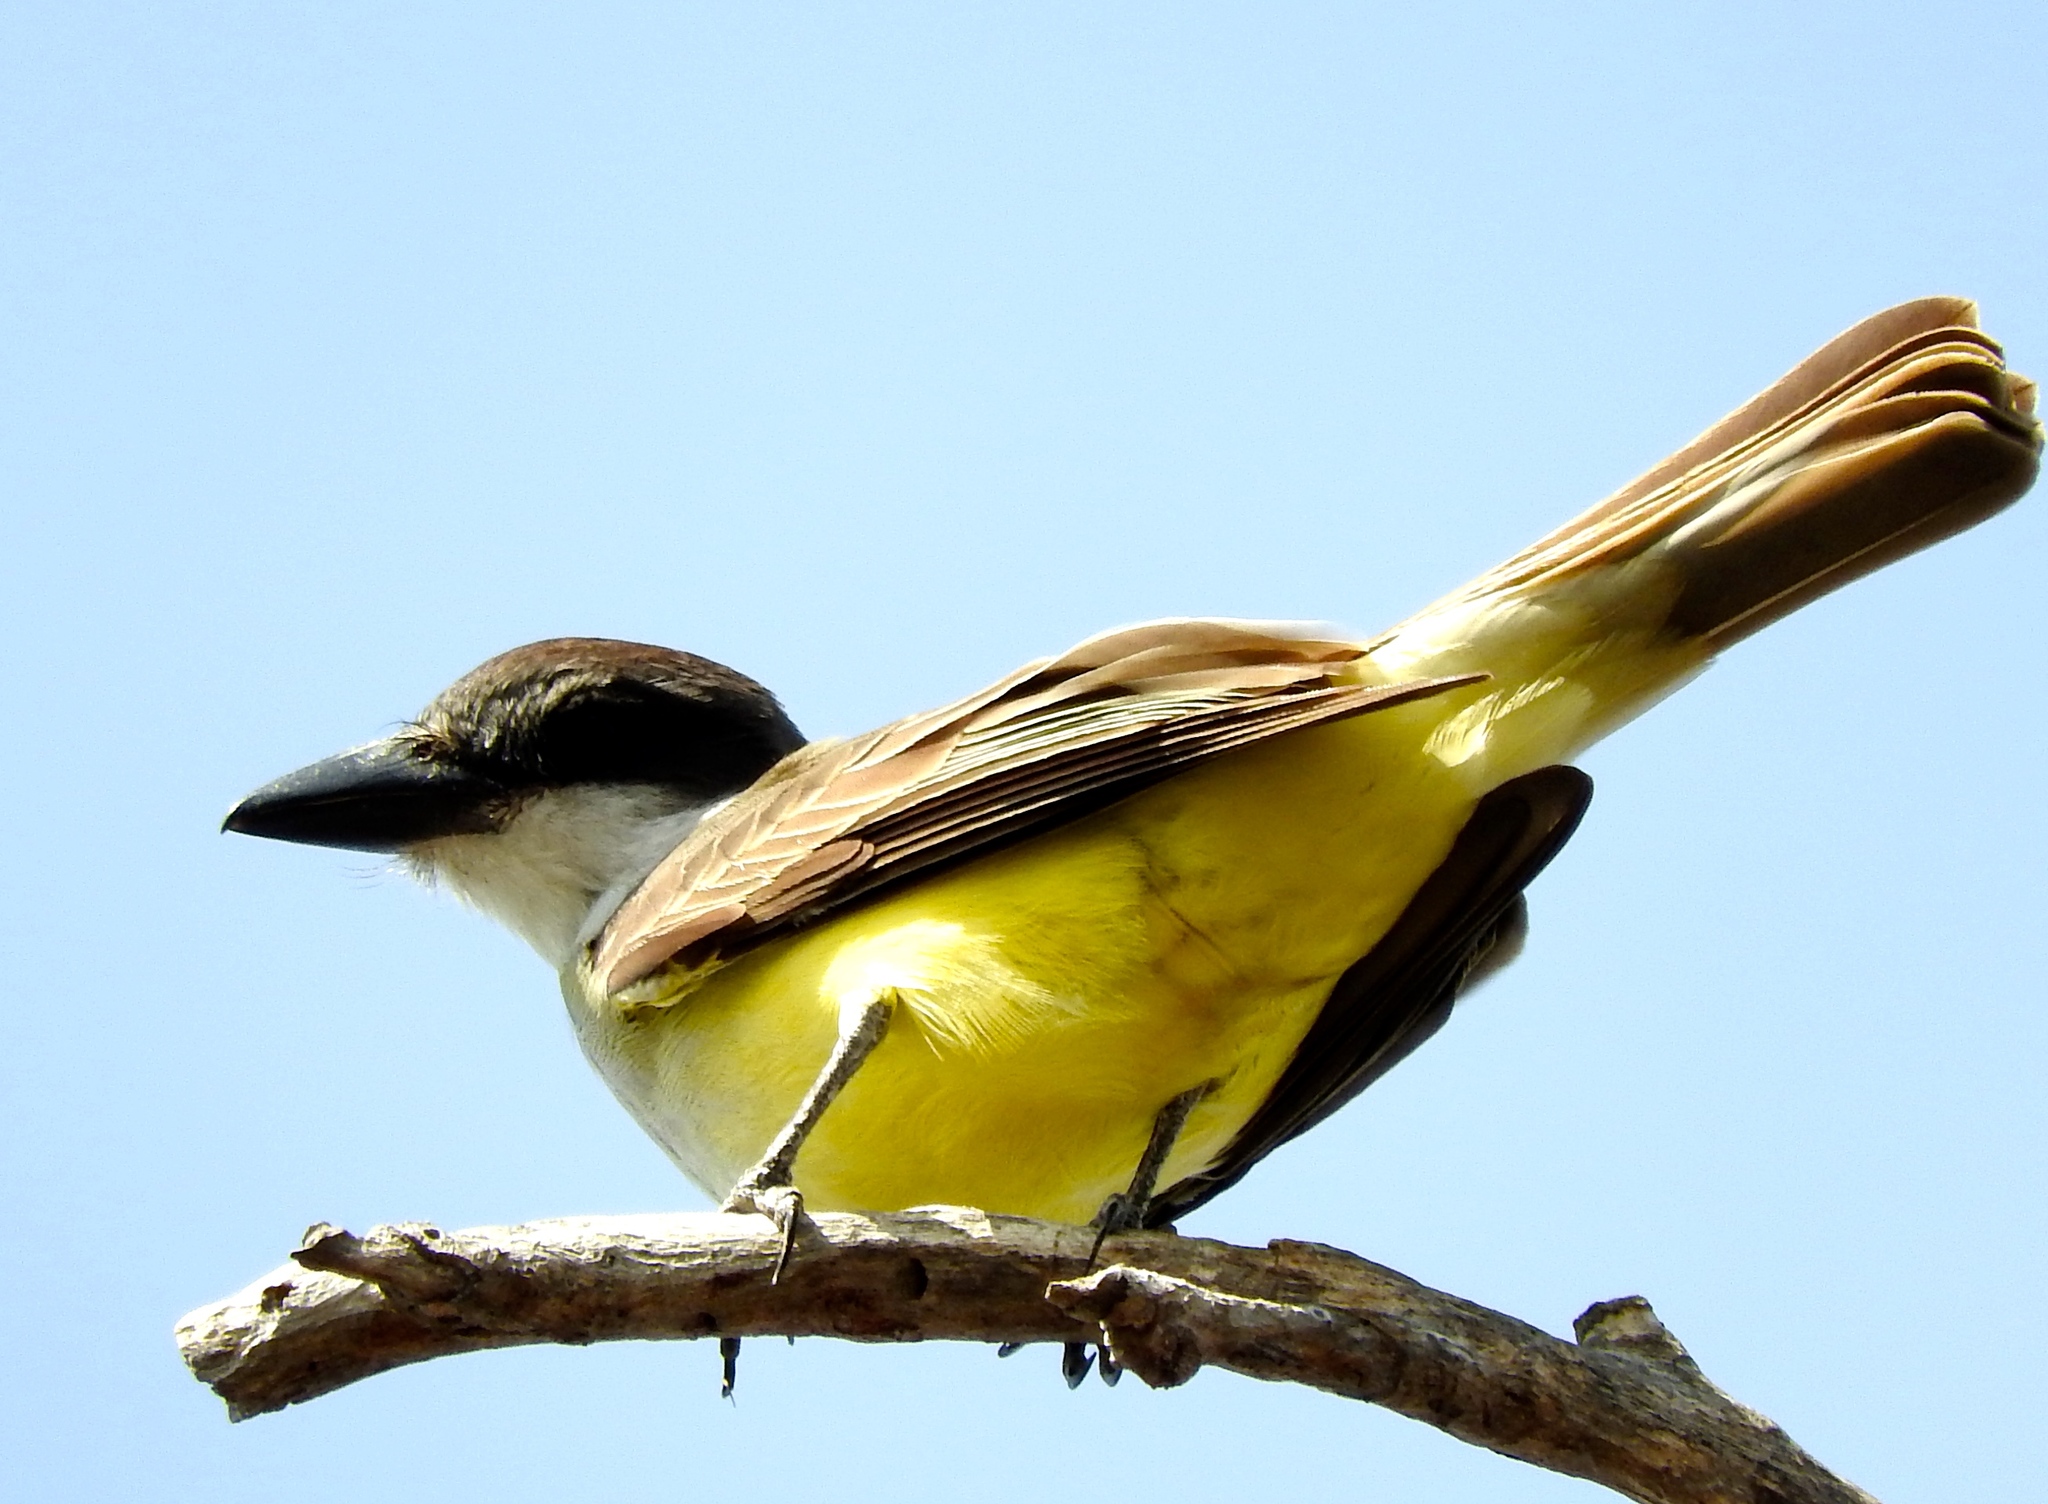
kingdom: Animalia
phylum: Chordata
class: Aves
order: Passeriformes
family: Tyrannidae
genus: Tyrannus
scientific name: Tyrannus crassirostris
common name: Thick-billed kingbird
